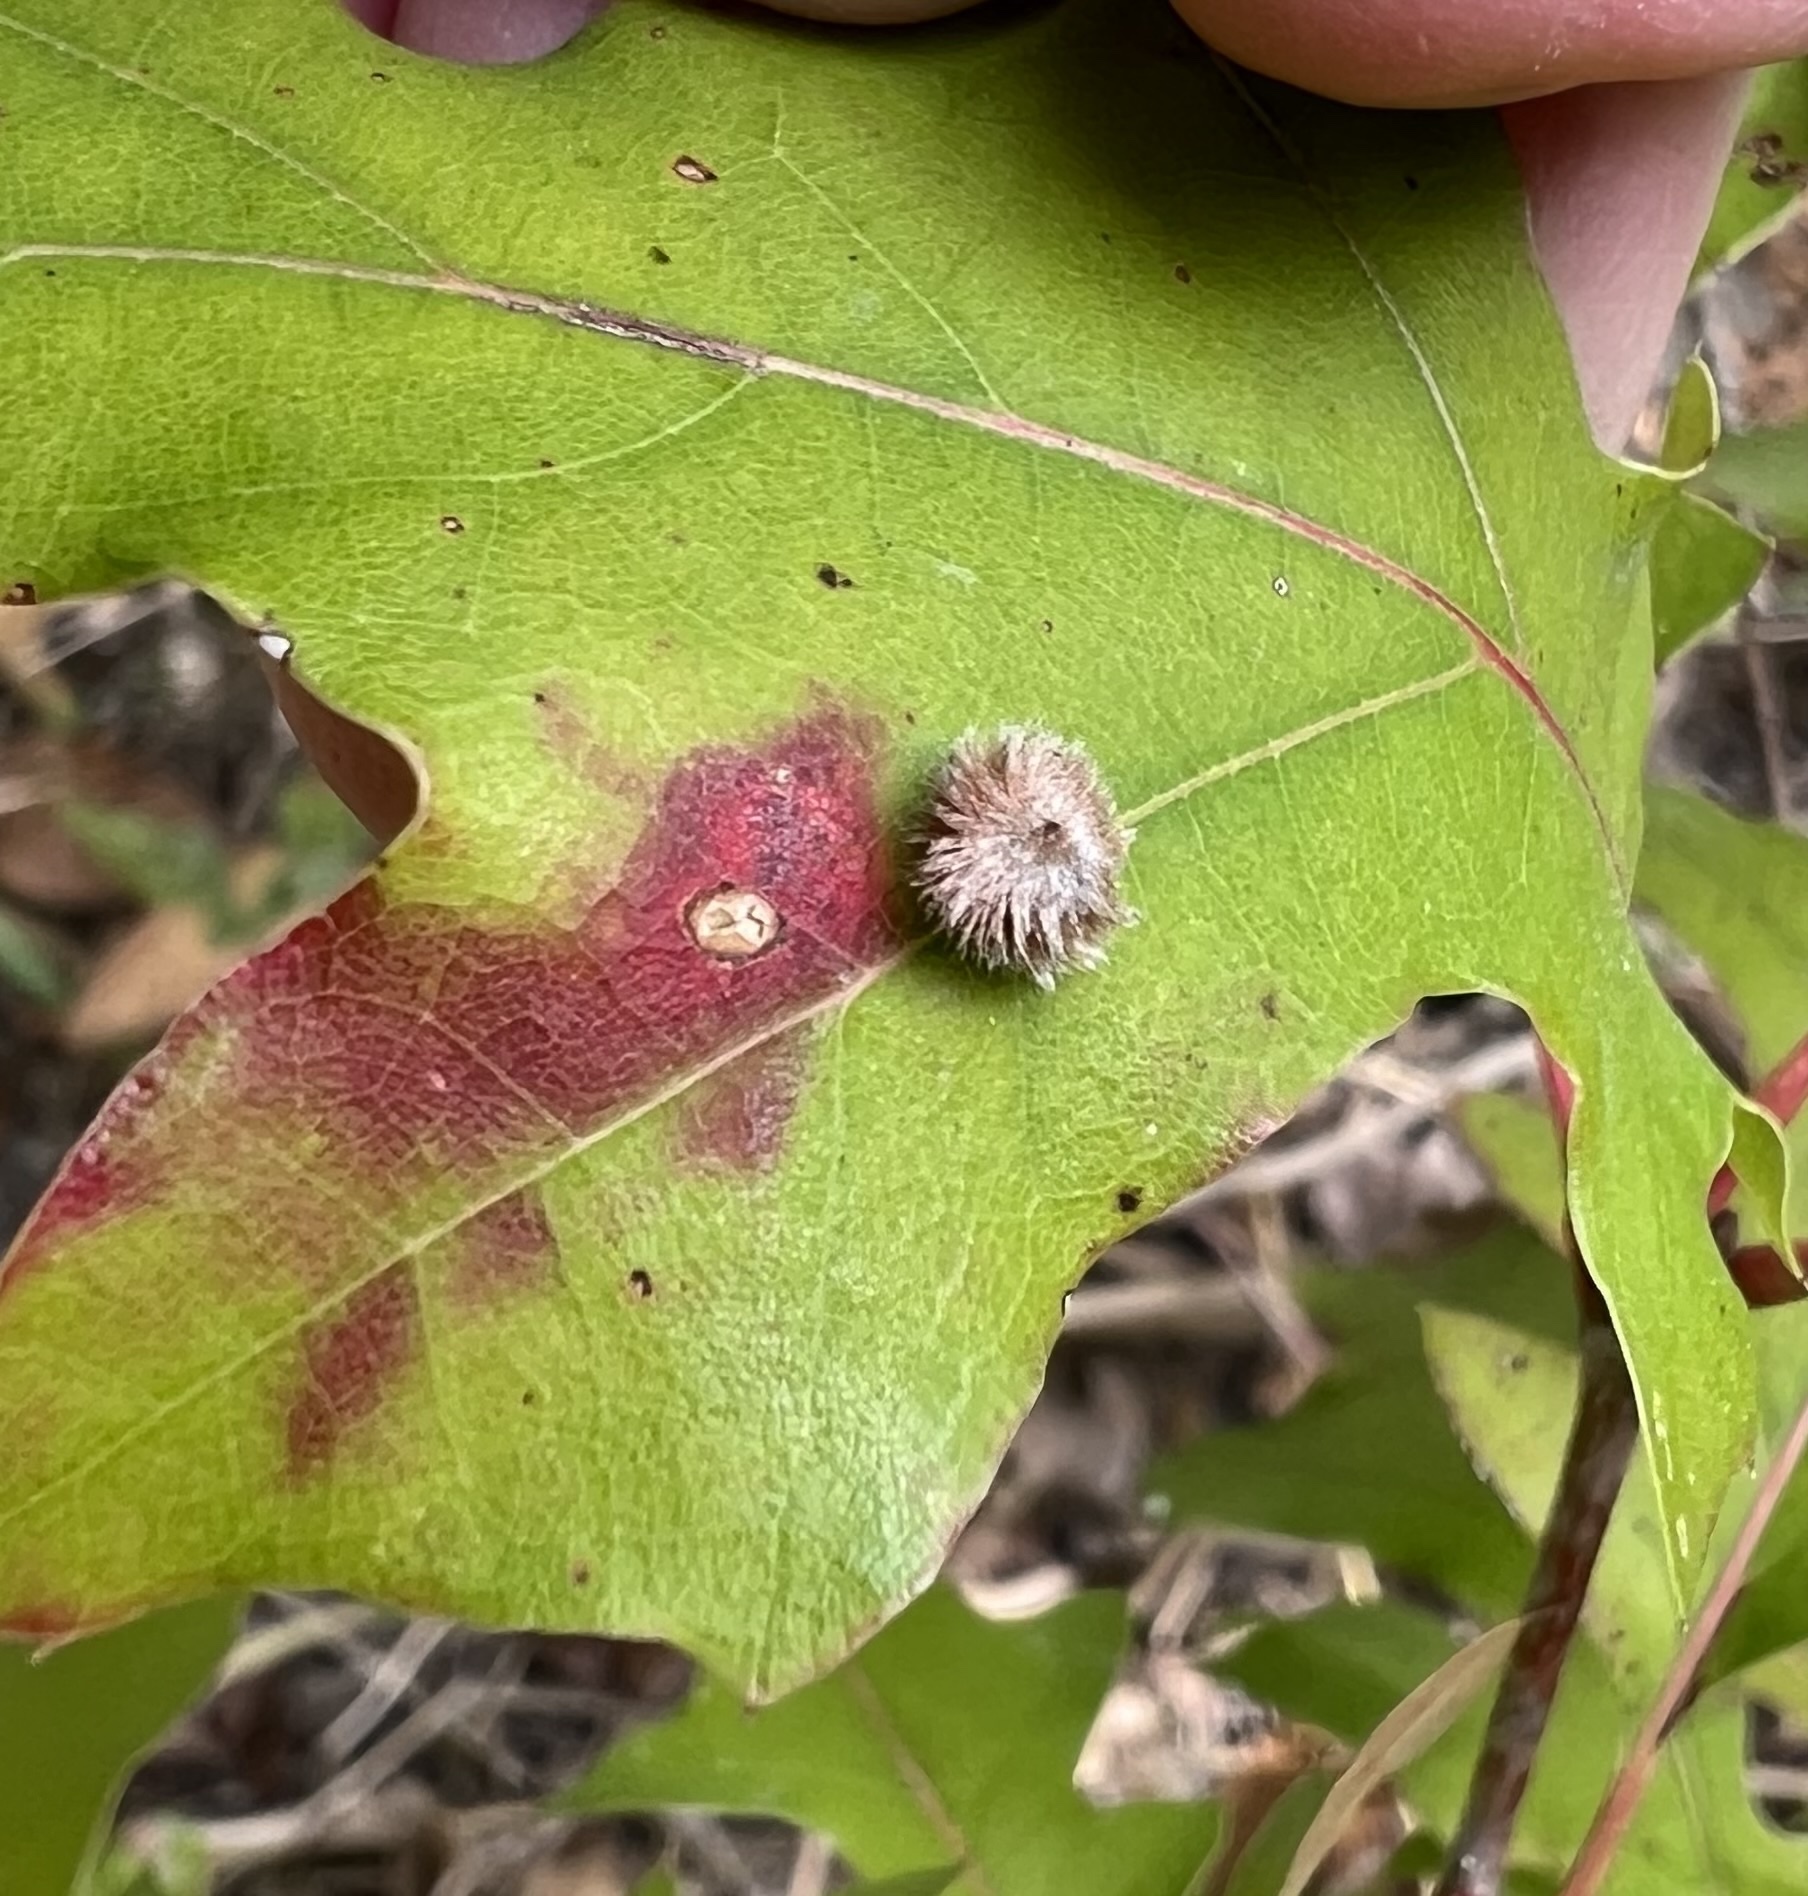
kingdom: Animalia
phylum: Arthropoda
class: Insecta
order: Hymenoptera
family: Cynipidae
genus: Callirhytis
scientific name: Callirhytis
